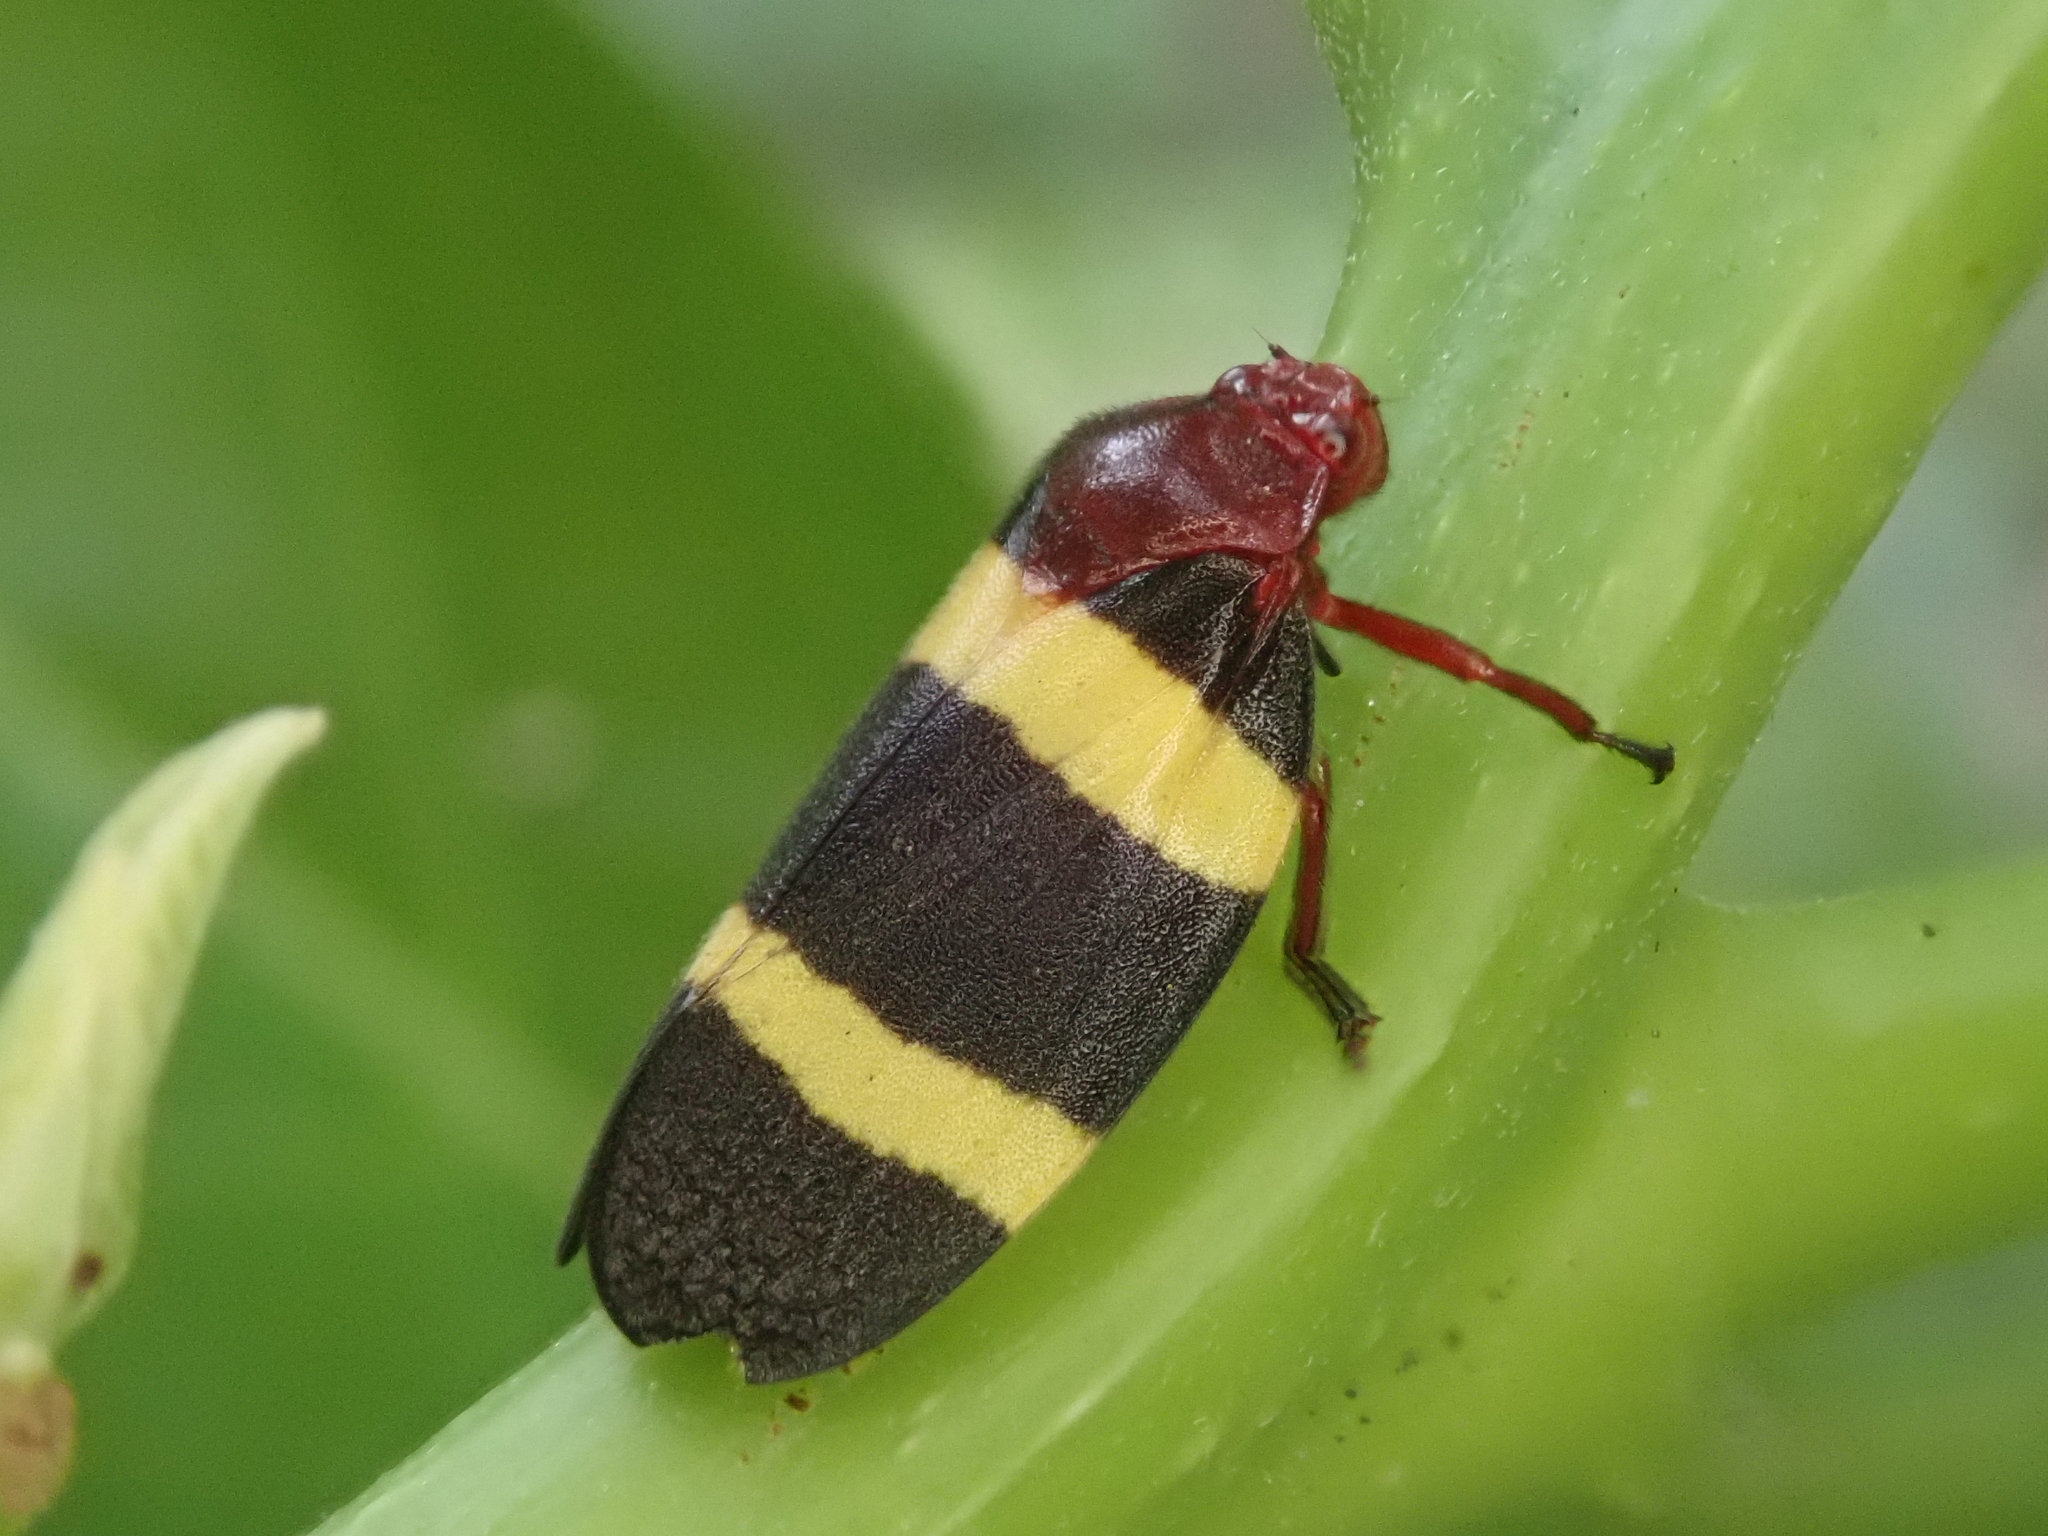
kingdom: Animalia
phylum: Arthropoda
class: Insecta
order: Hemiptera
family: Cercopidae
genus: Sphenorhina
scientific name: Sphenorhina rubra
